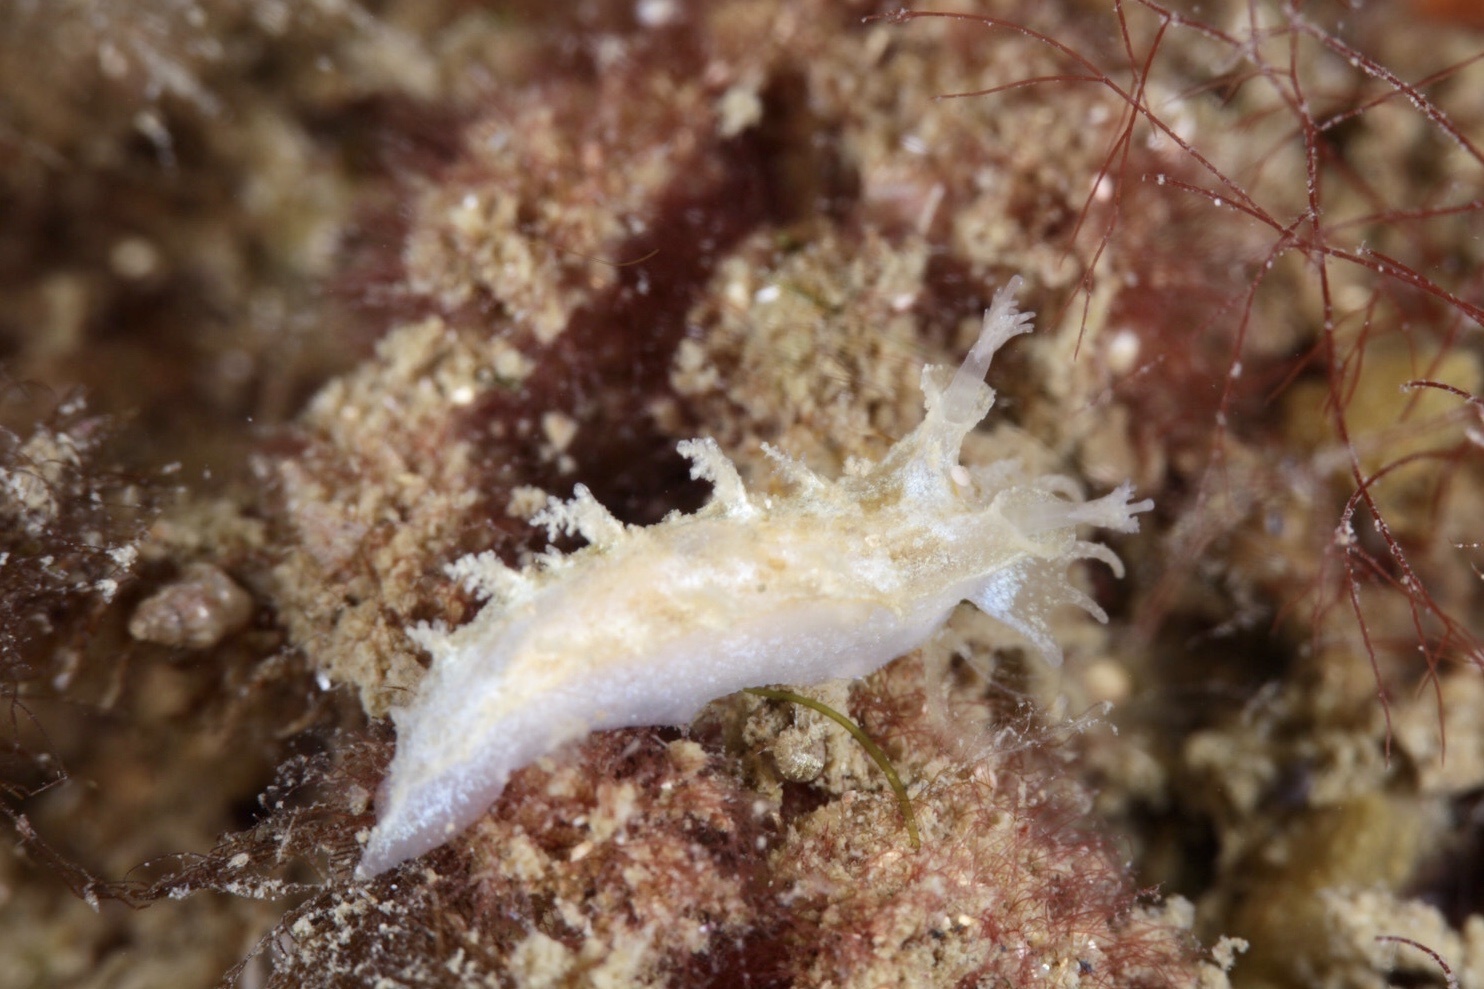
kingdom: Animalia
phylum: Mollusca
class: Gastropoda
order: Nudibranchia
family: Tritoniidae
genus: Duvaucelia
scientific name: Duvaucelia plebeia
